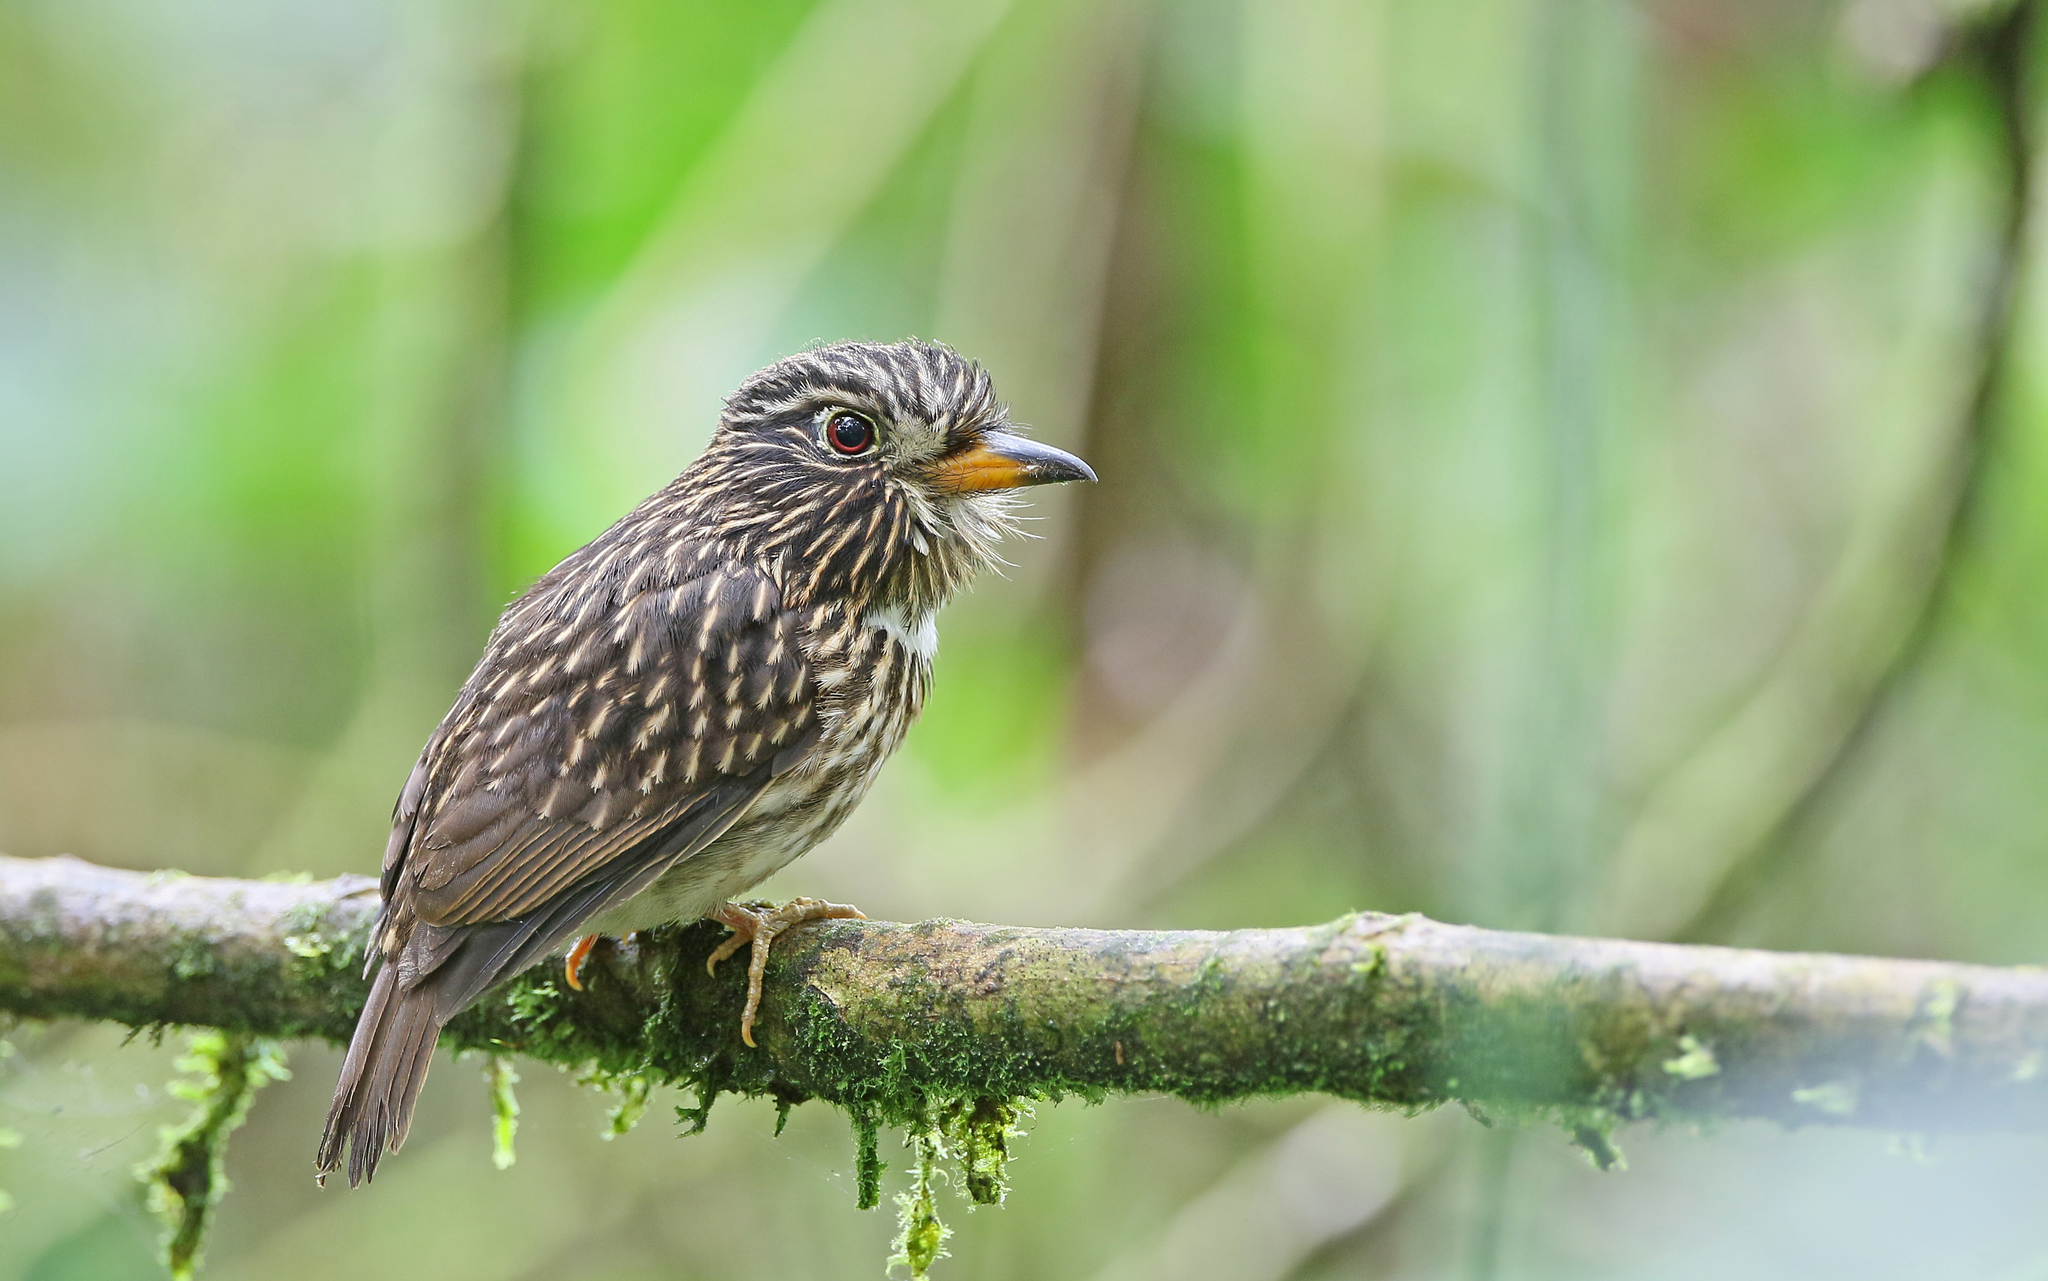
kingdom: Animalia
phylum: Chordata
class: Aves
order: Piciformes
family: Bucconidae
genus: Malacoptila
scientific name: Malacoptila fusca
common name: White-chested puffbird
